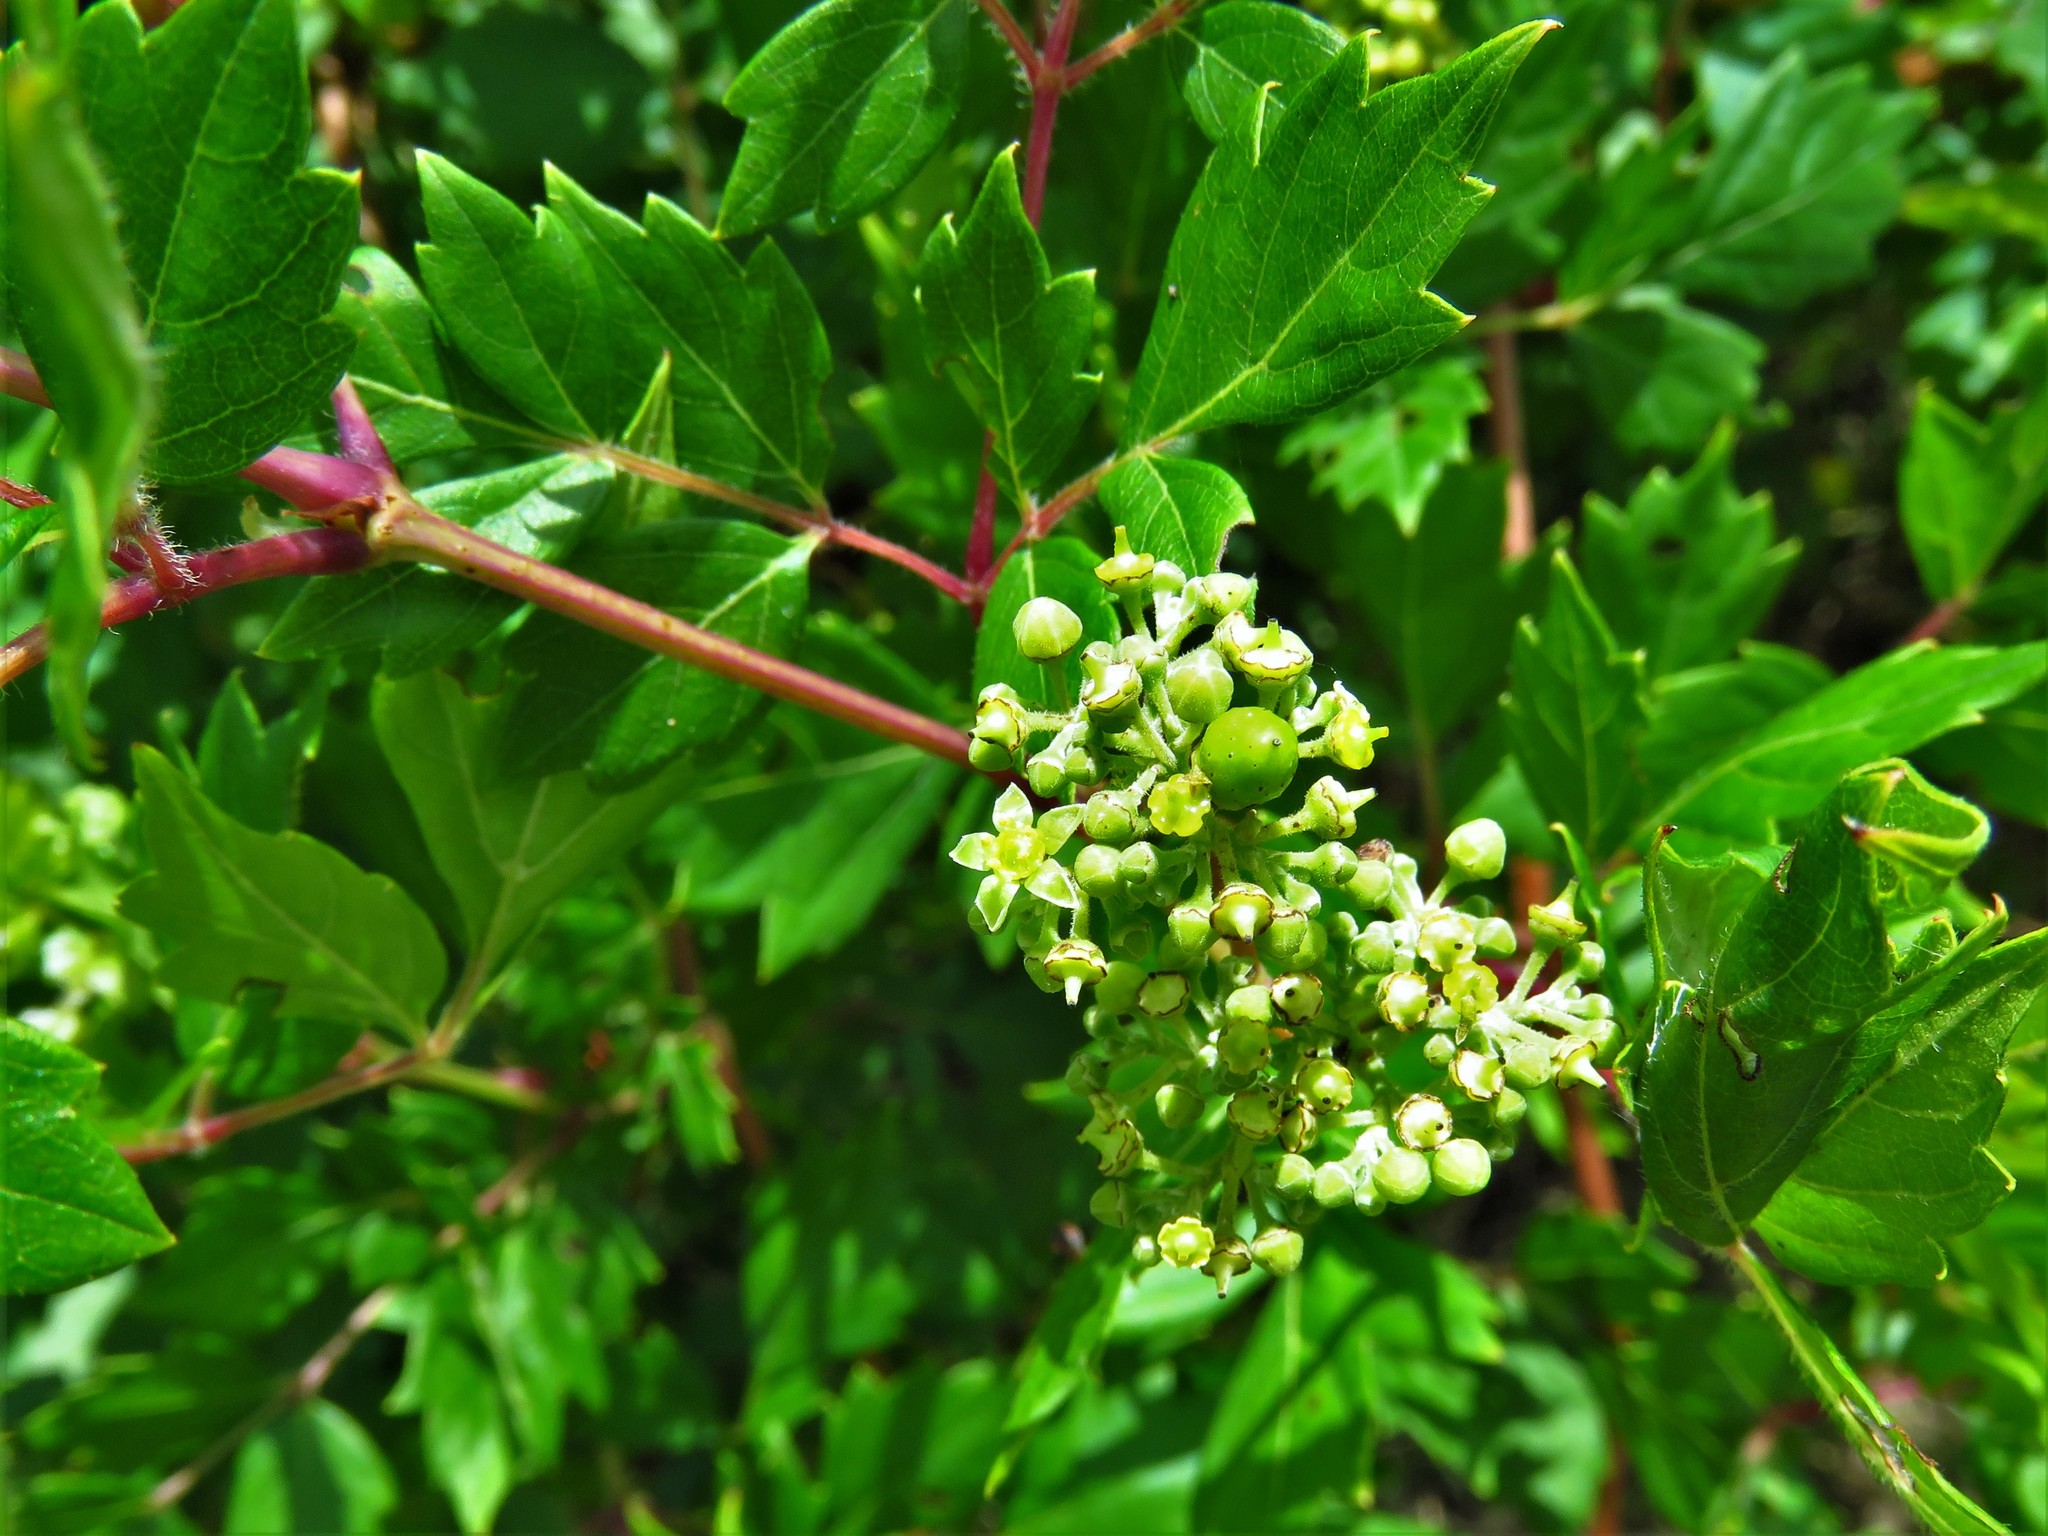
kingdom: Plantae
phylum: Tracheophyta
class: Magnoliopsida
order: Vitales
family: Vitaceae
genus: Nekemias
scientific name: Nekemias arborea
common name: Peppervine
